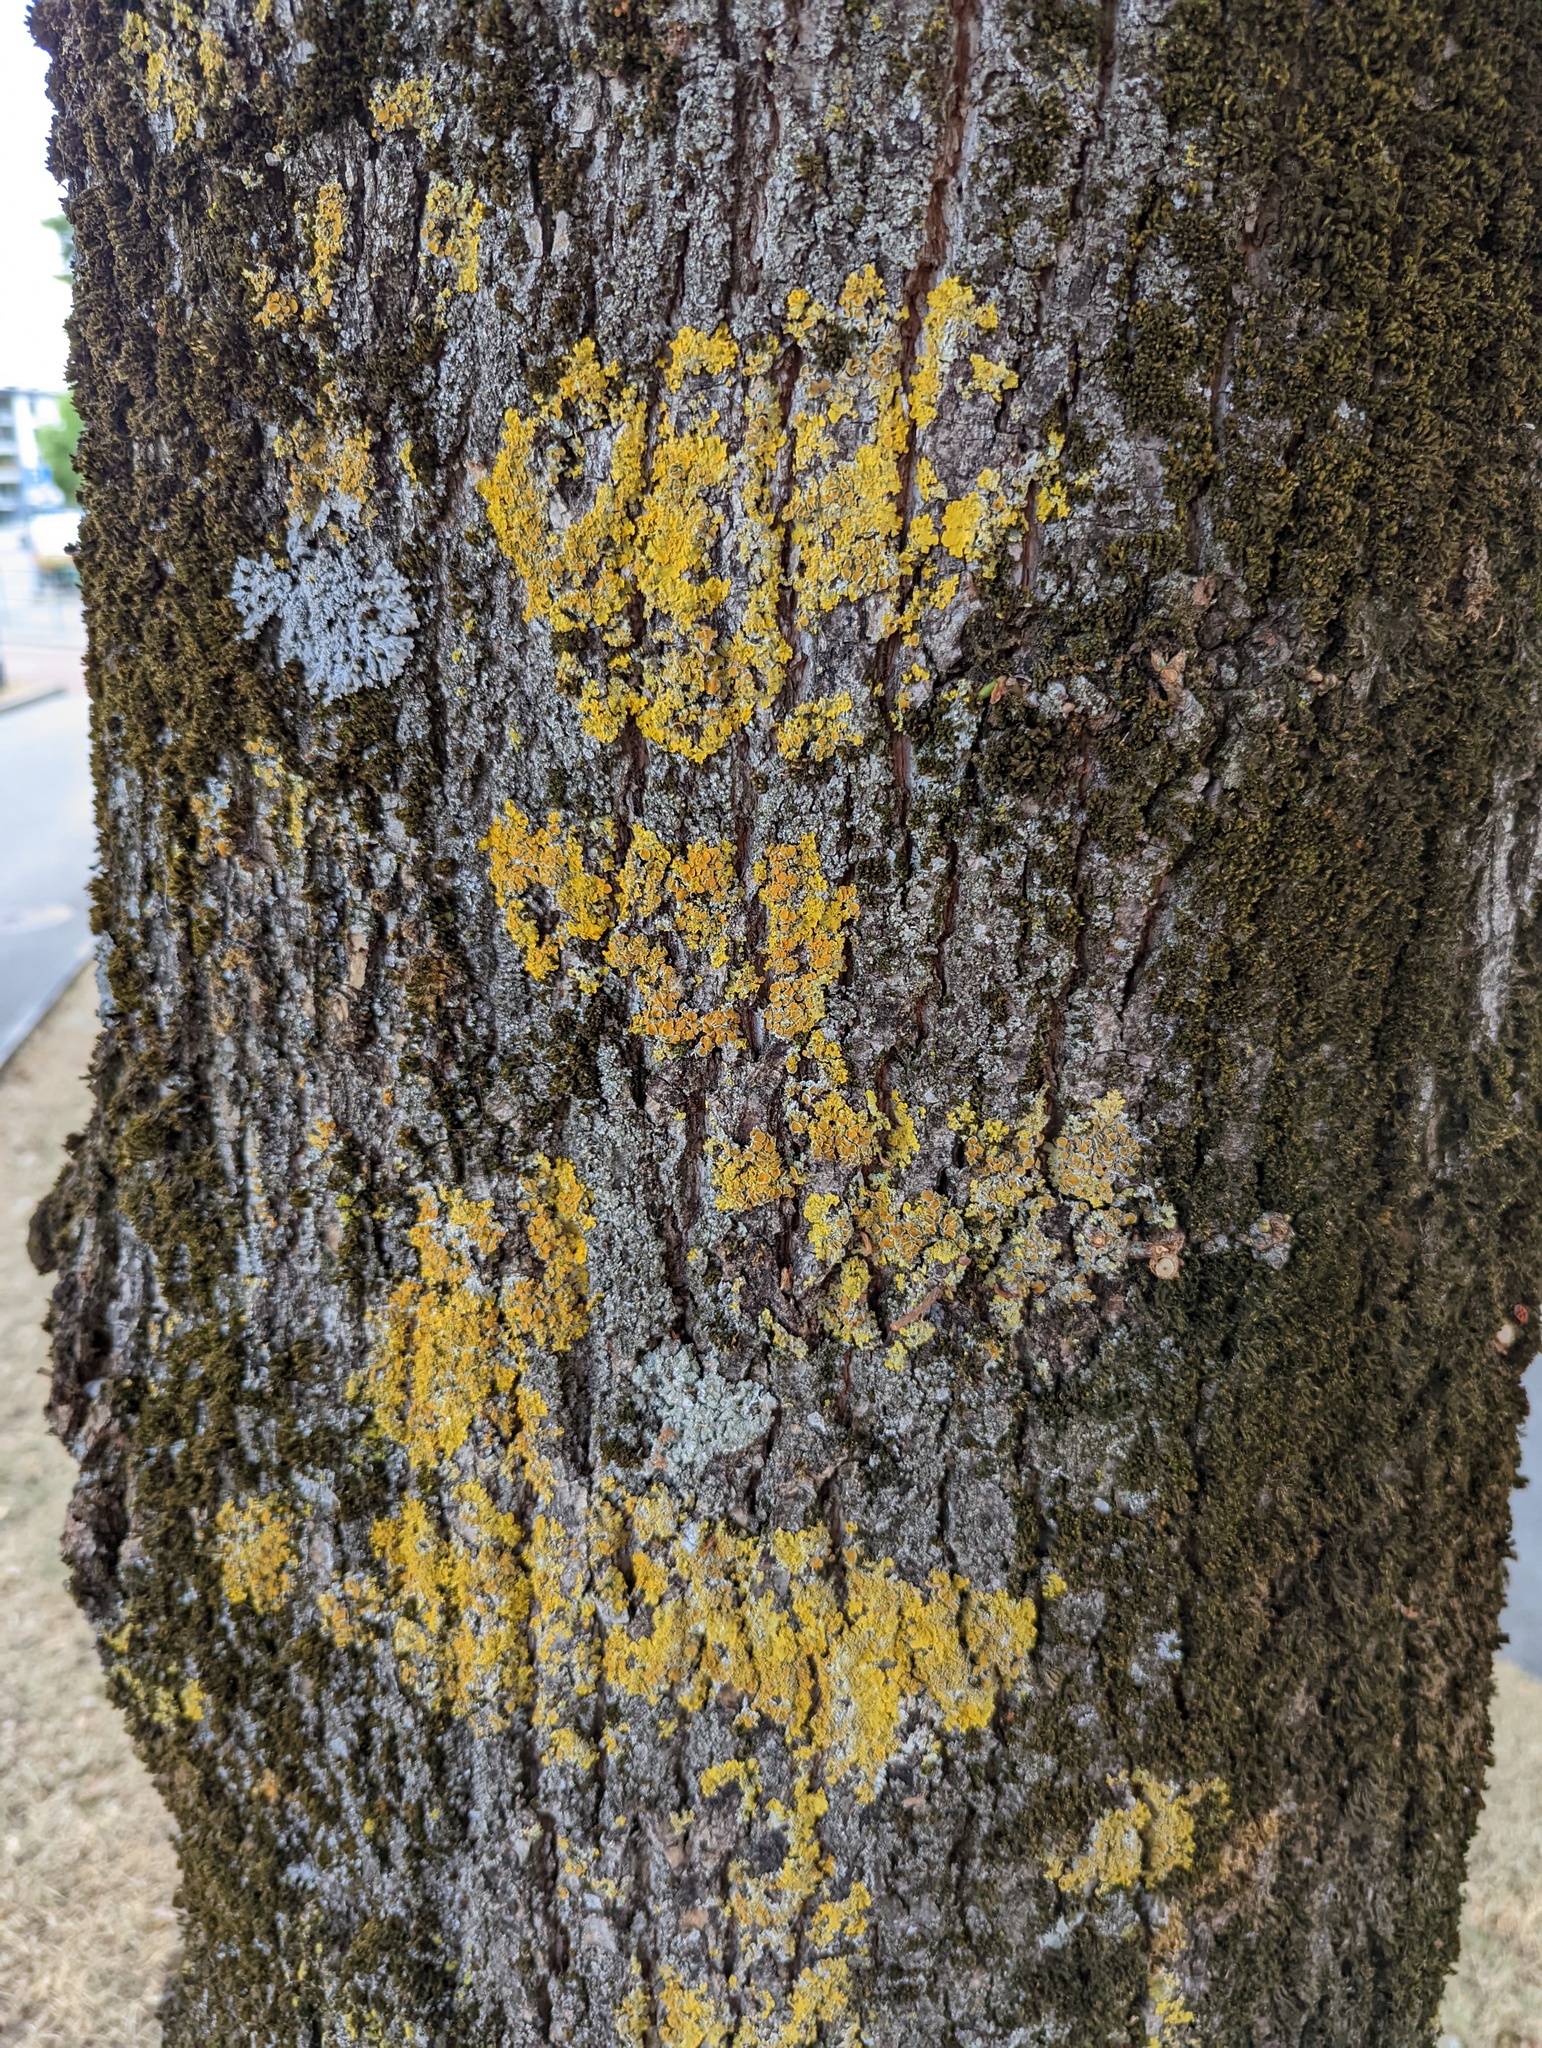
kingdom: Fungi
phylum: Ascomycota
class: Lecanoromycetes
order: Teloschistales
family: Teloschistaceae
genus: Xanthoria
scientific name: Xanthoria parietina
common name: Common orange lichen
